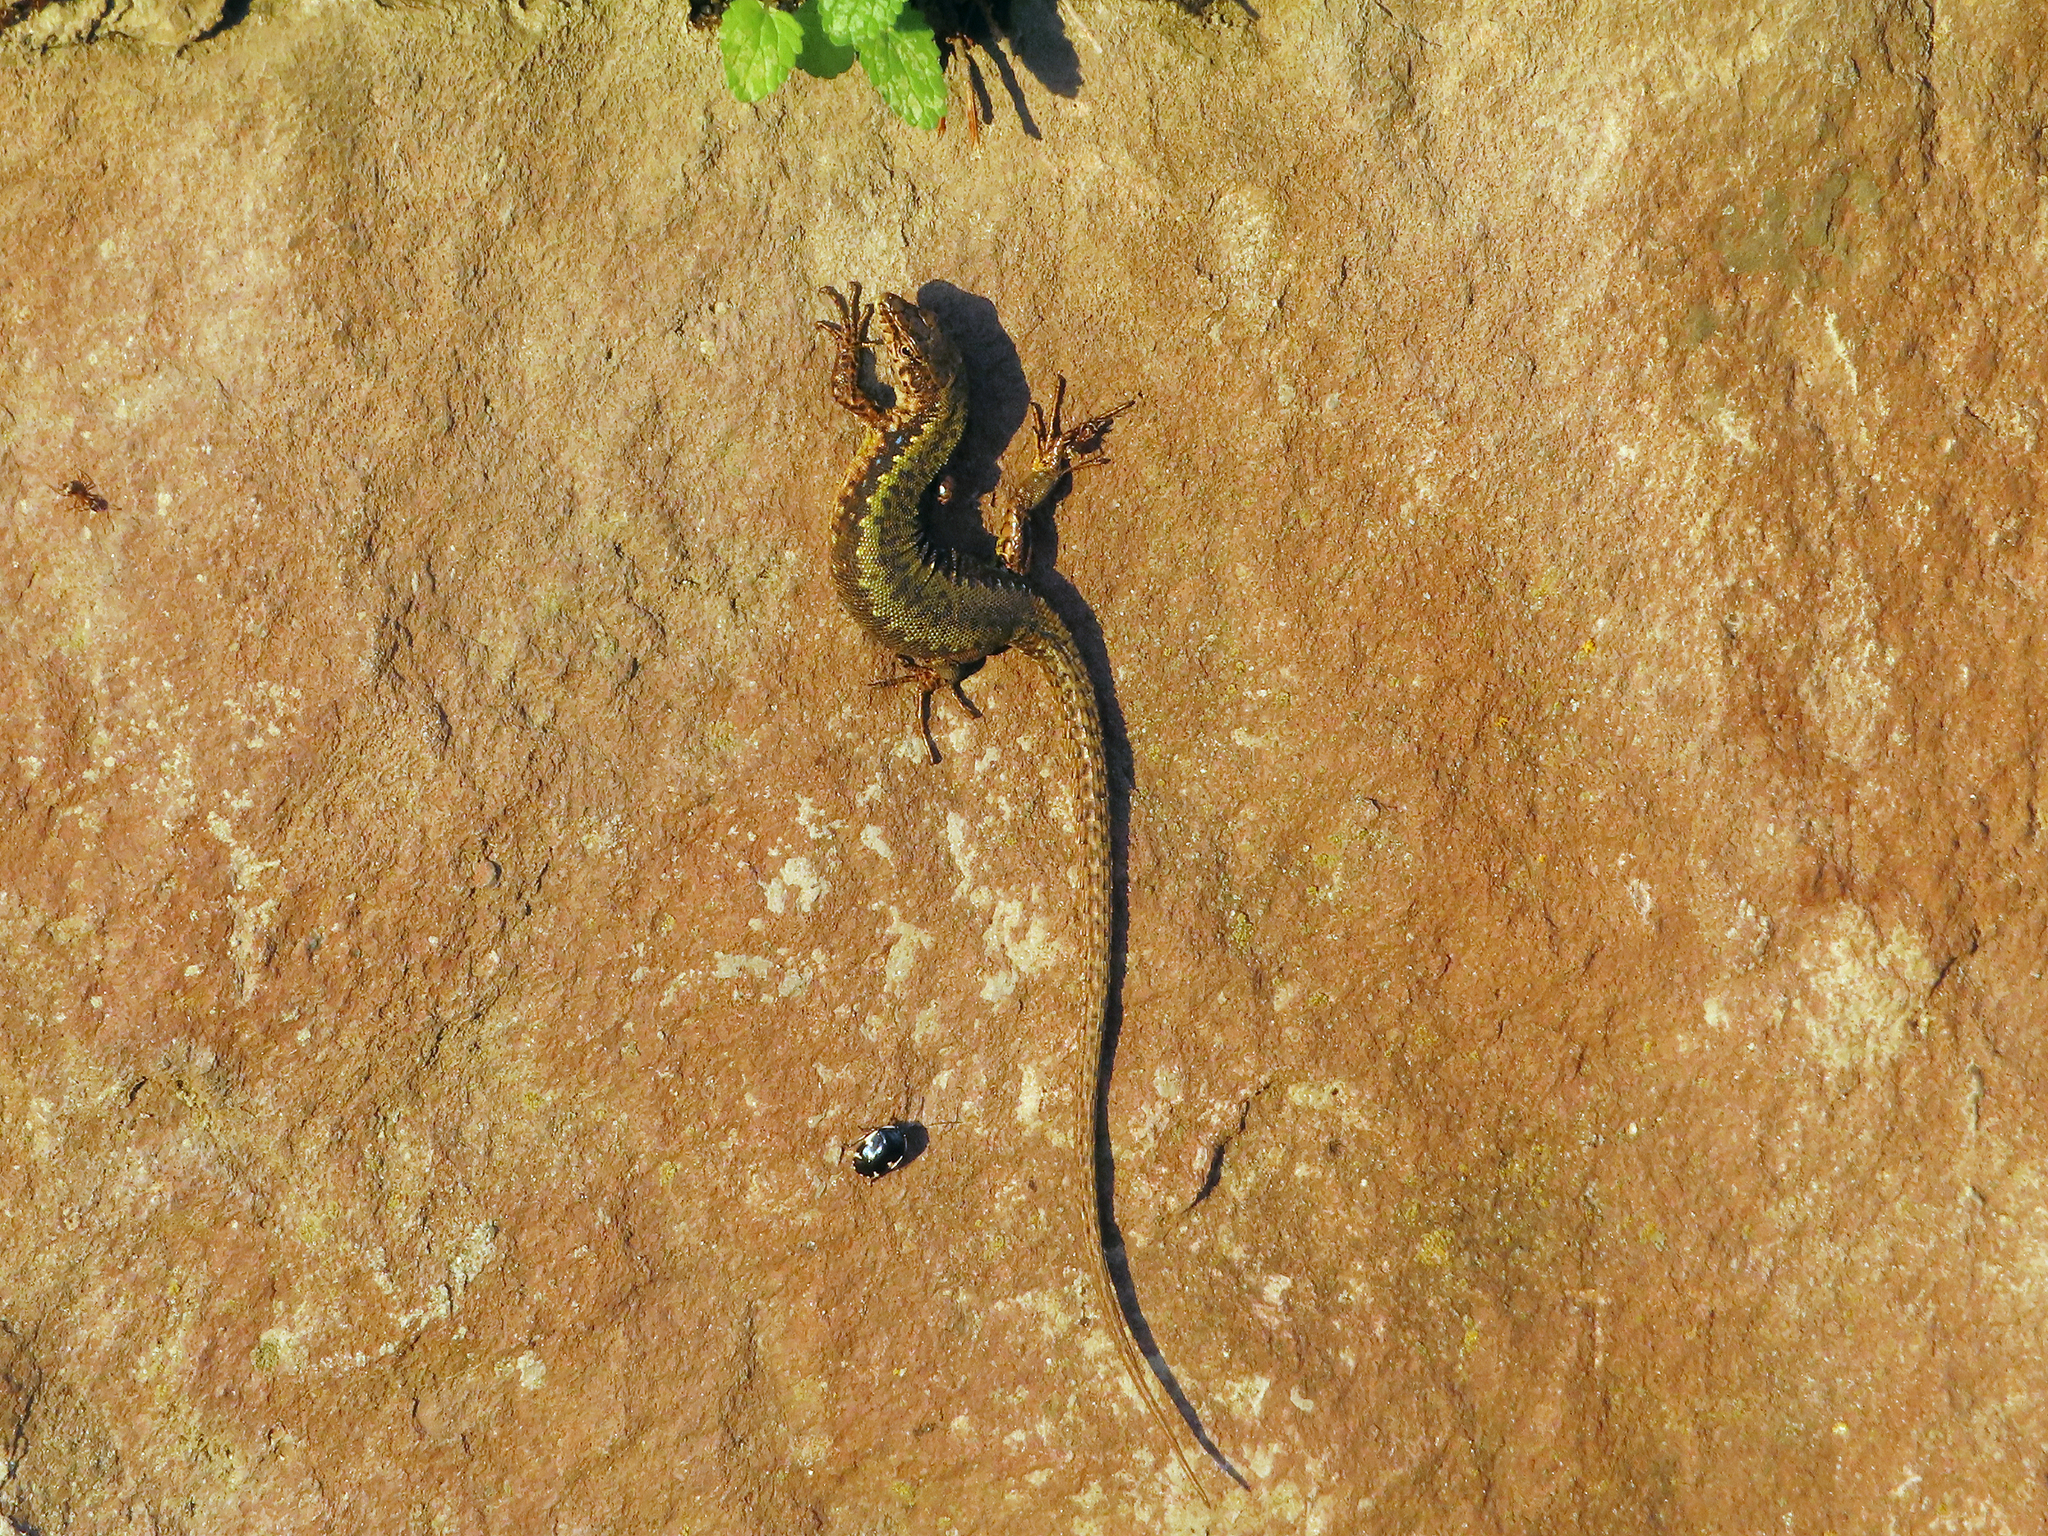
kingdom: Animalia
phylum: Chordata
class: Squamata
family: Lacertidae
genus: Darevskia
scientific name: Darevskia armeniaca
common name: Armenian lizard
